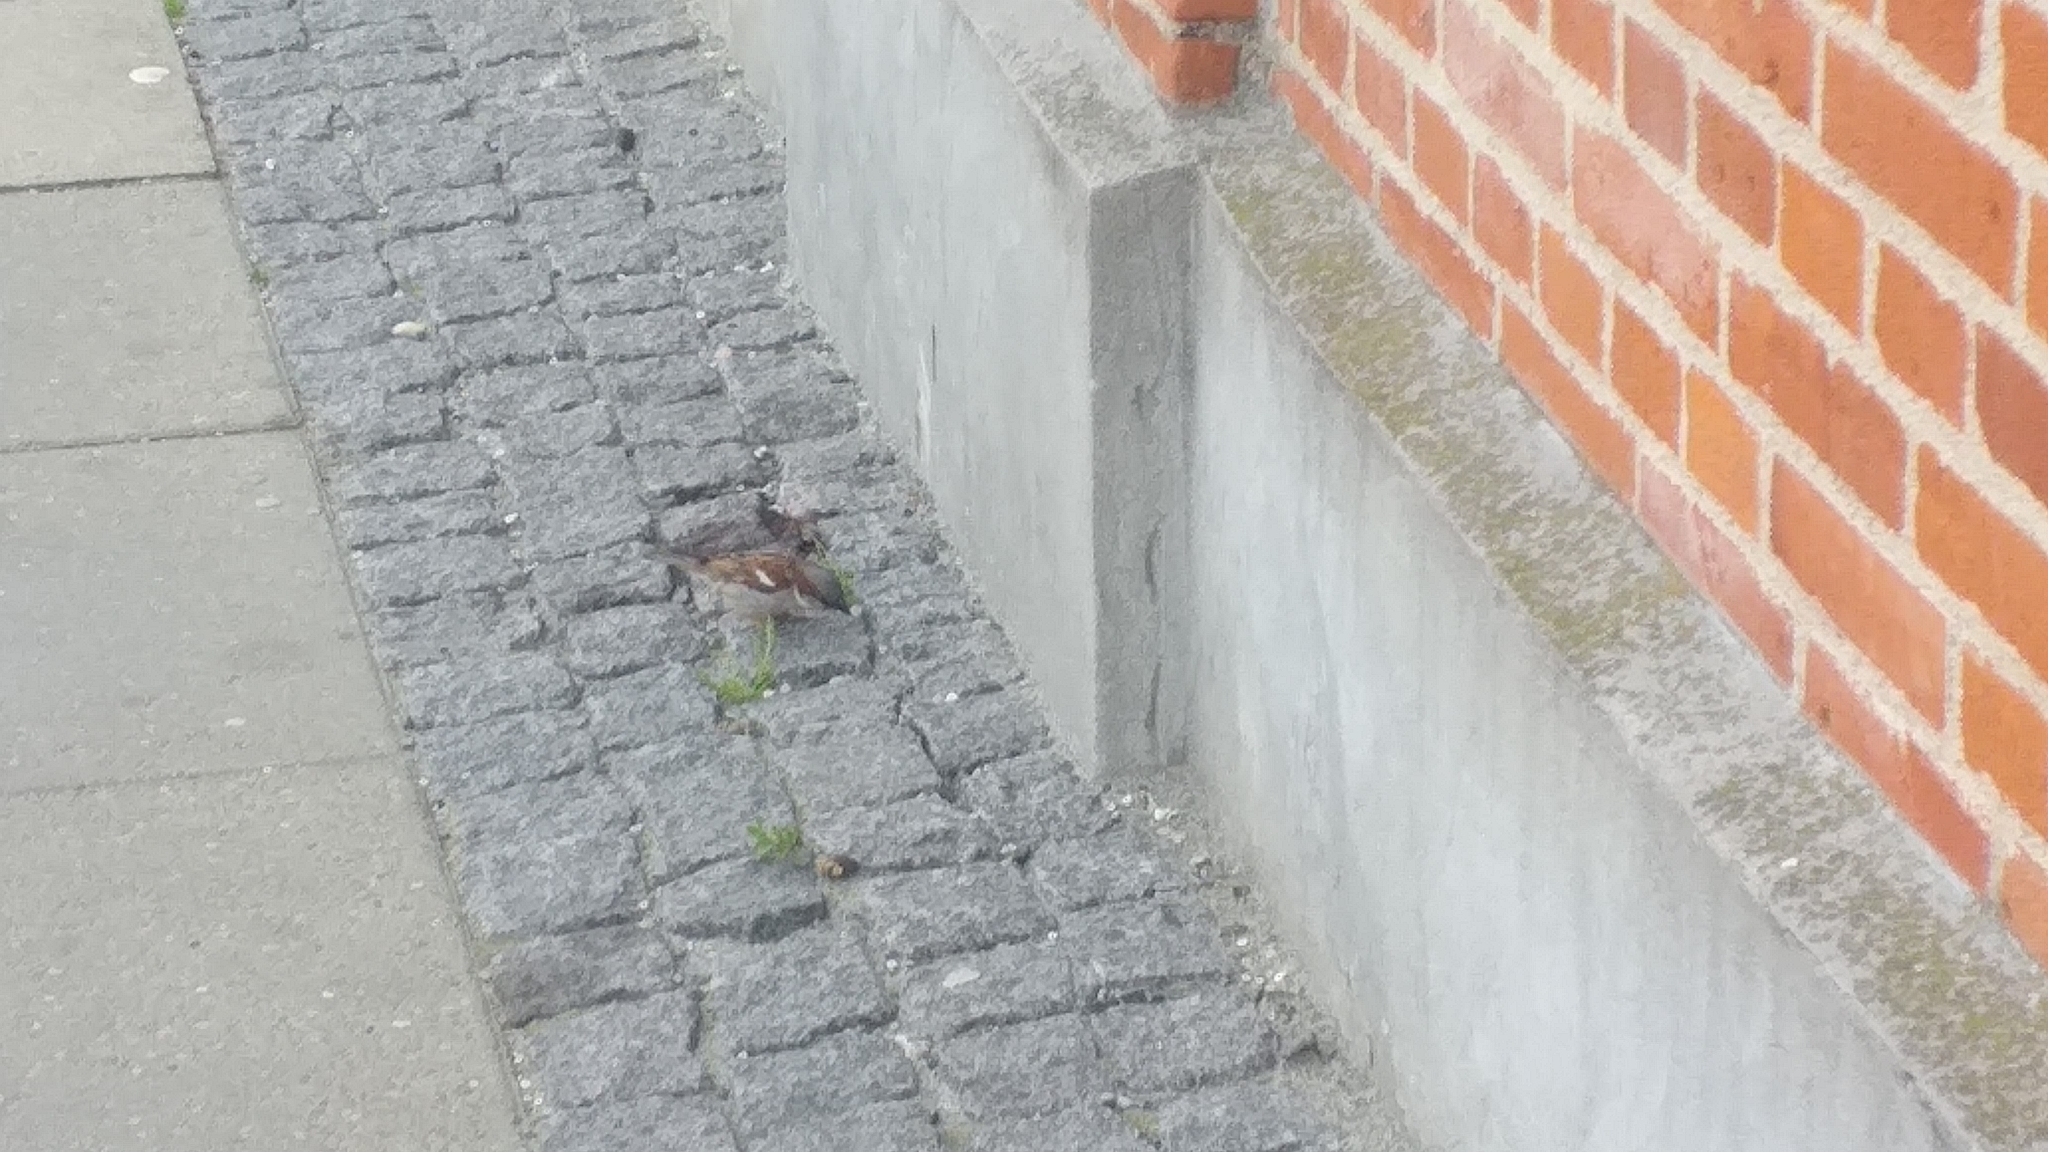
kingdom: Animalia
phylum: Chordata
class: Aves
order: Passeriformes
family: Passeridae
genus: Passer
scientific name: Passer domesticus
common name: House sparrow
